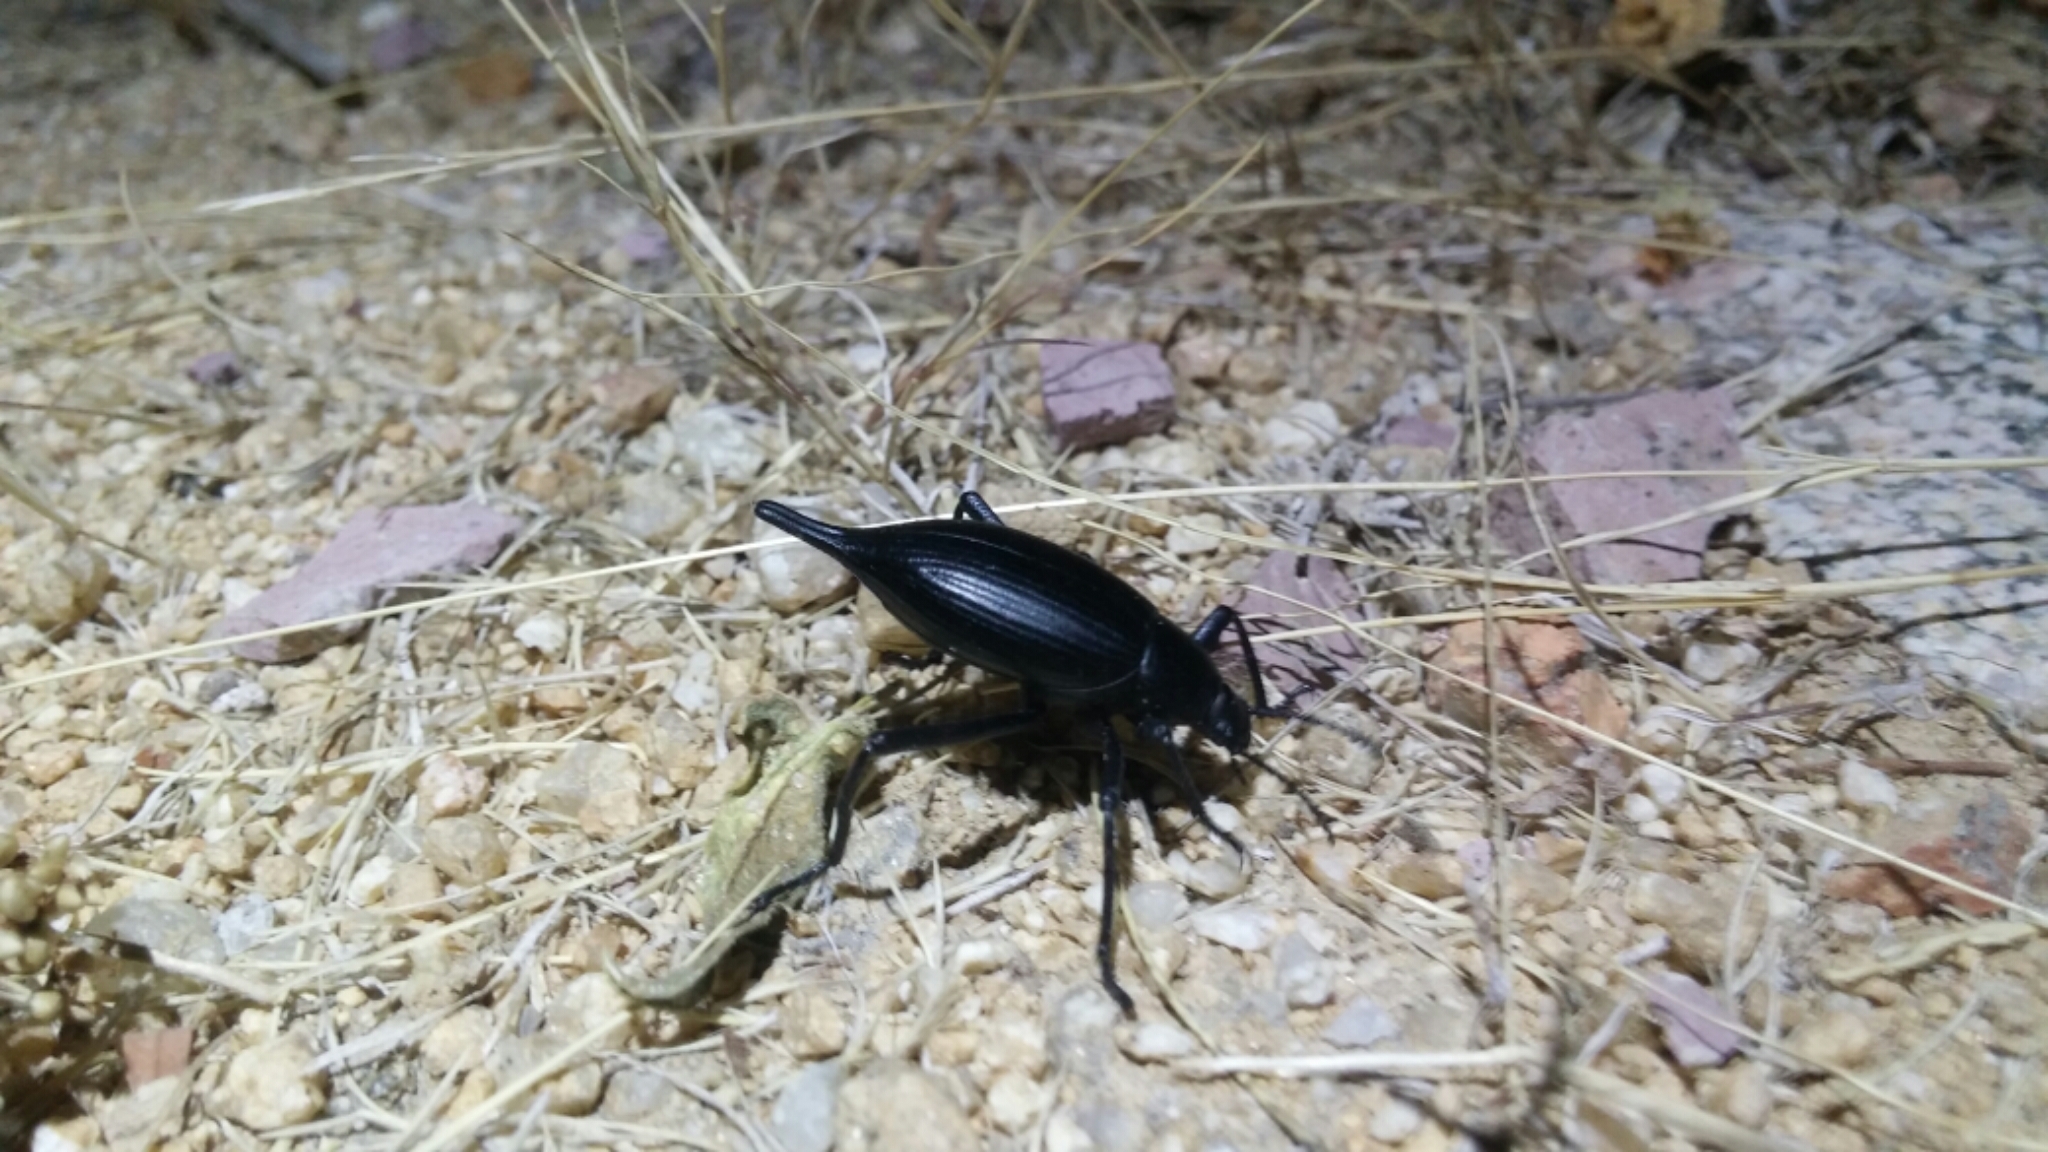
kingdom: Animalia
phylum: Arthropoda
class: Insecta
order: Coleoptera
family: Tenebrionidae
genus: Eleodes
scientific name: Eleodes eschscholtzii
